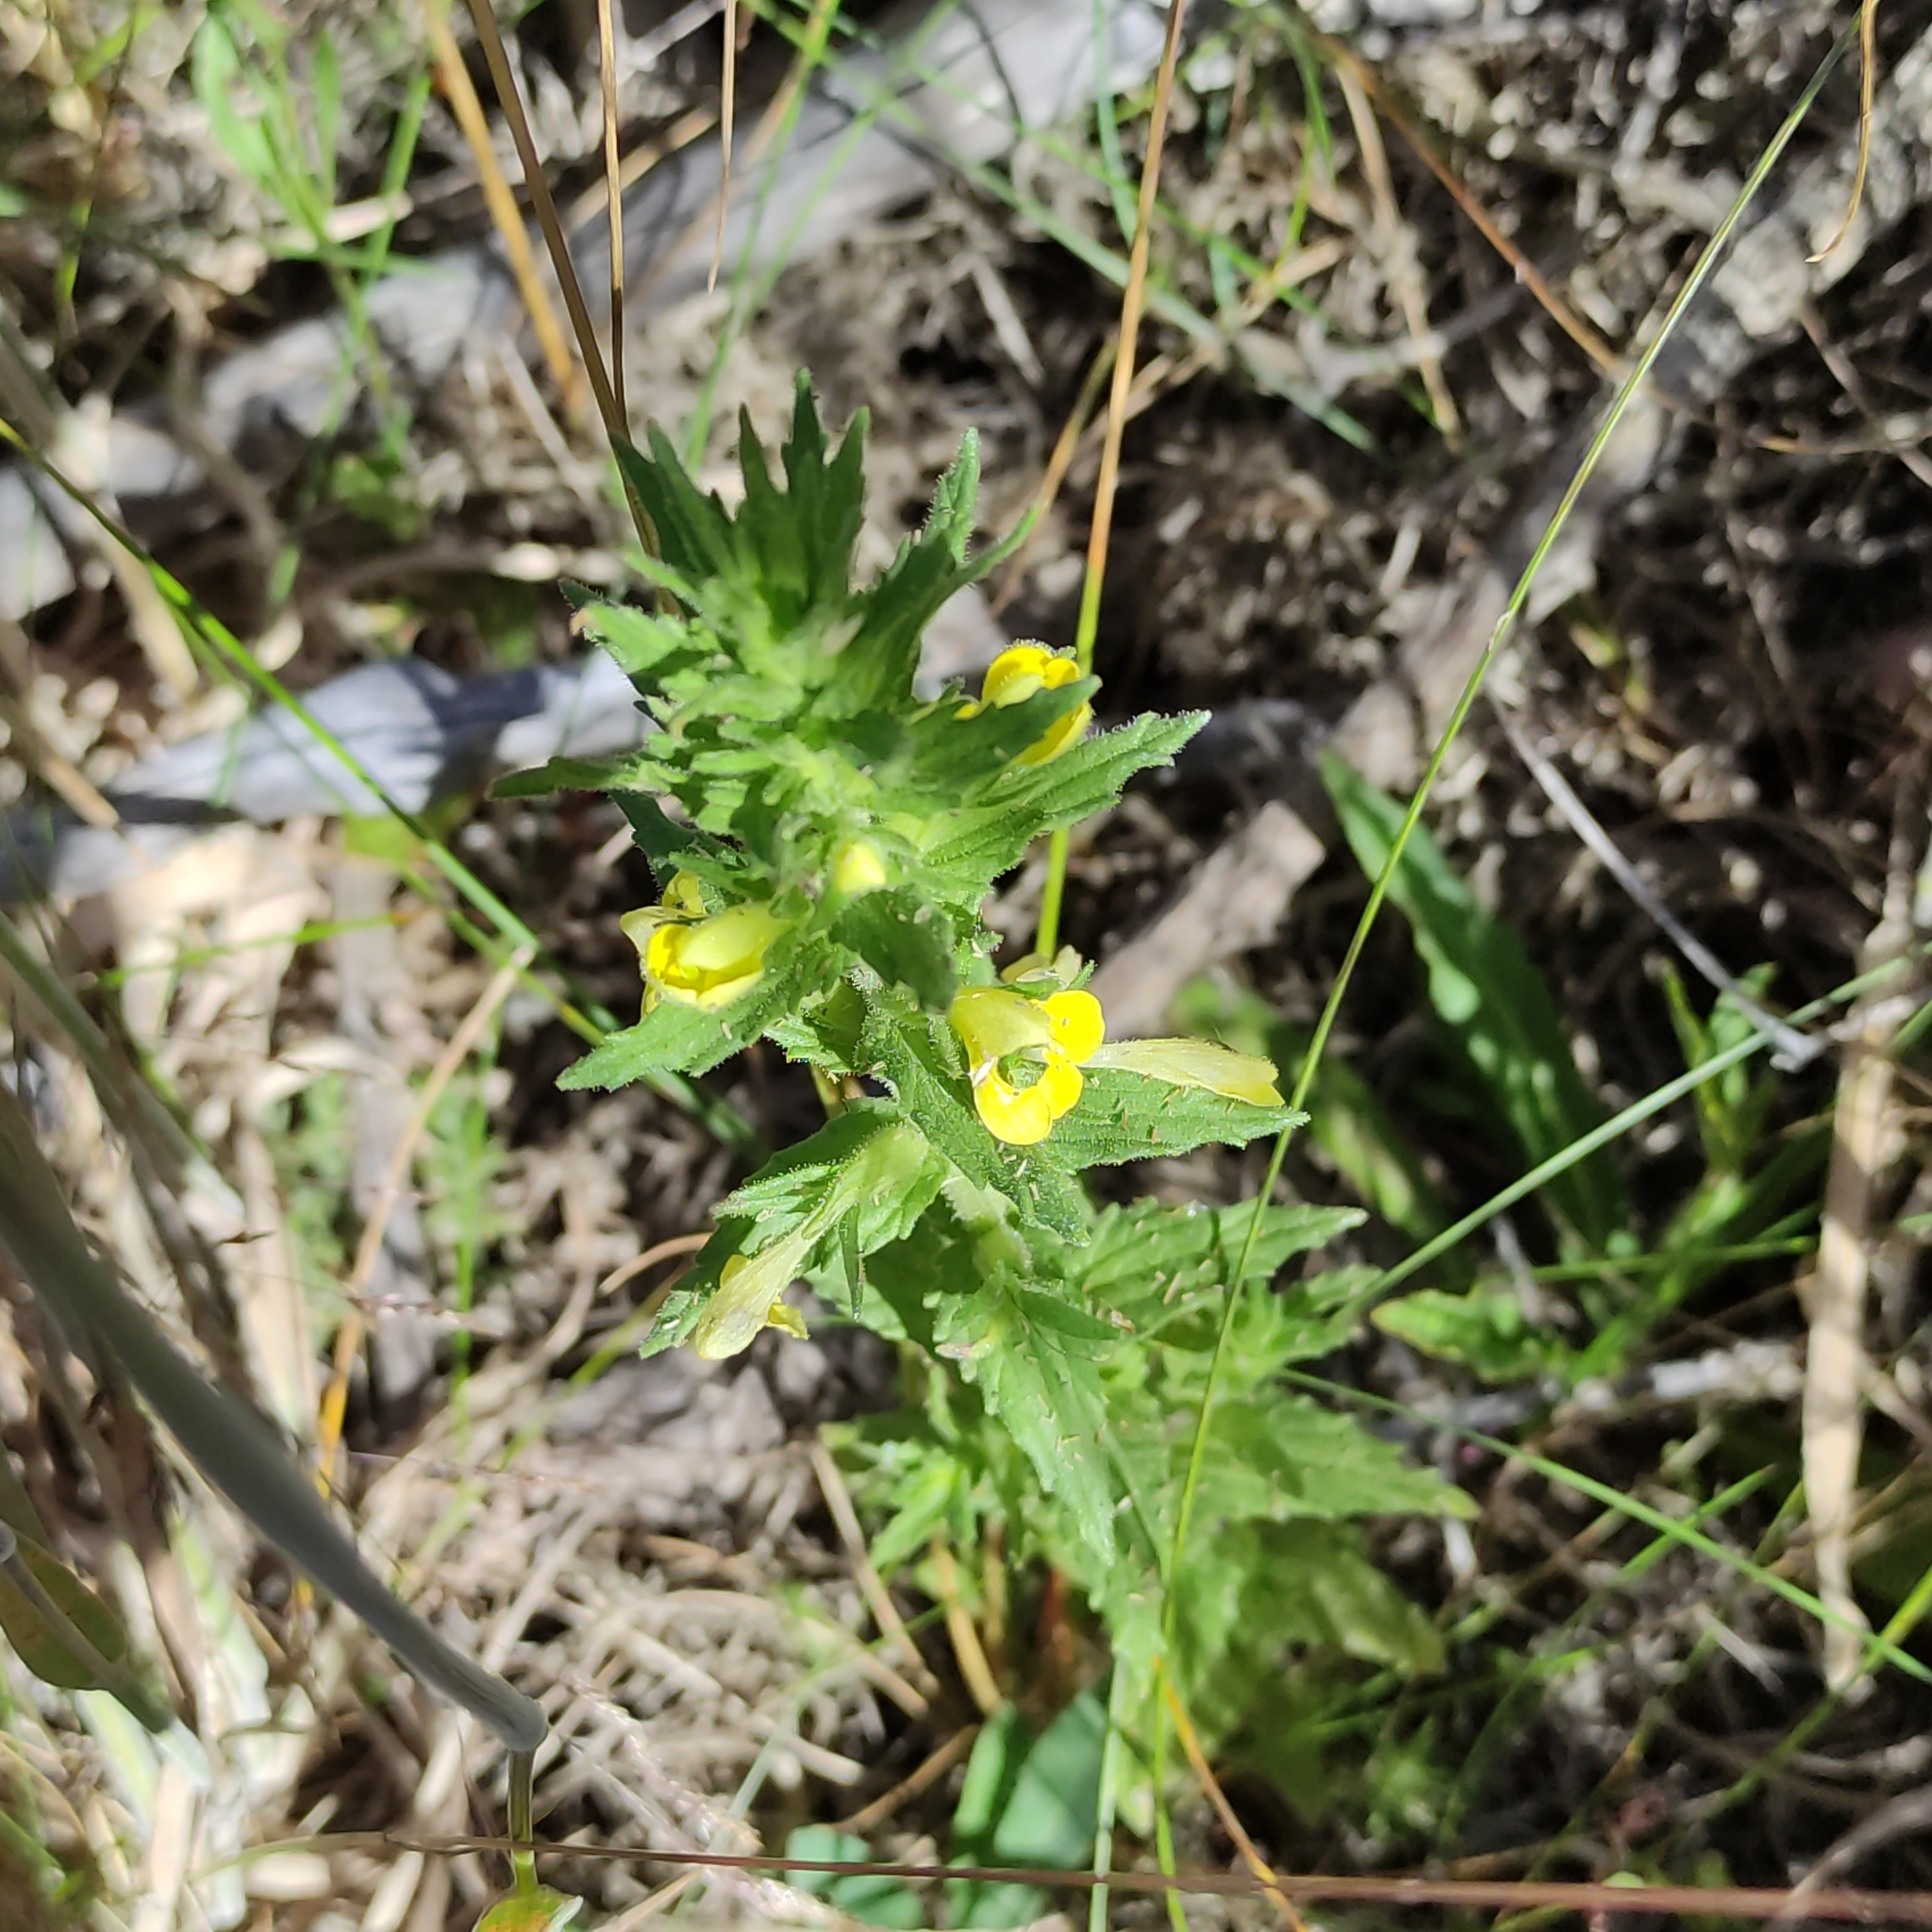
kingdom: Plantae
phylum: Tracheophyta
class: Magnoliopsida
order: Lamiales
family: Orobanchaceae
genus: Bellardia
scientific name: Bellardia viscosa
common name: Sticky parentucellia
